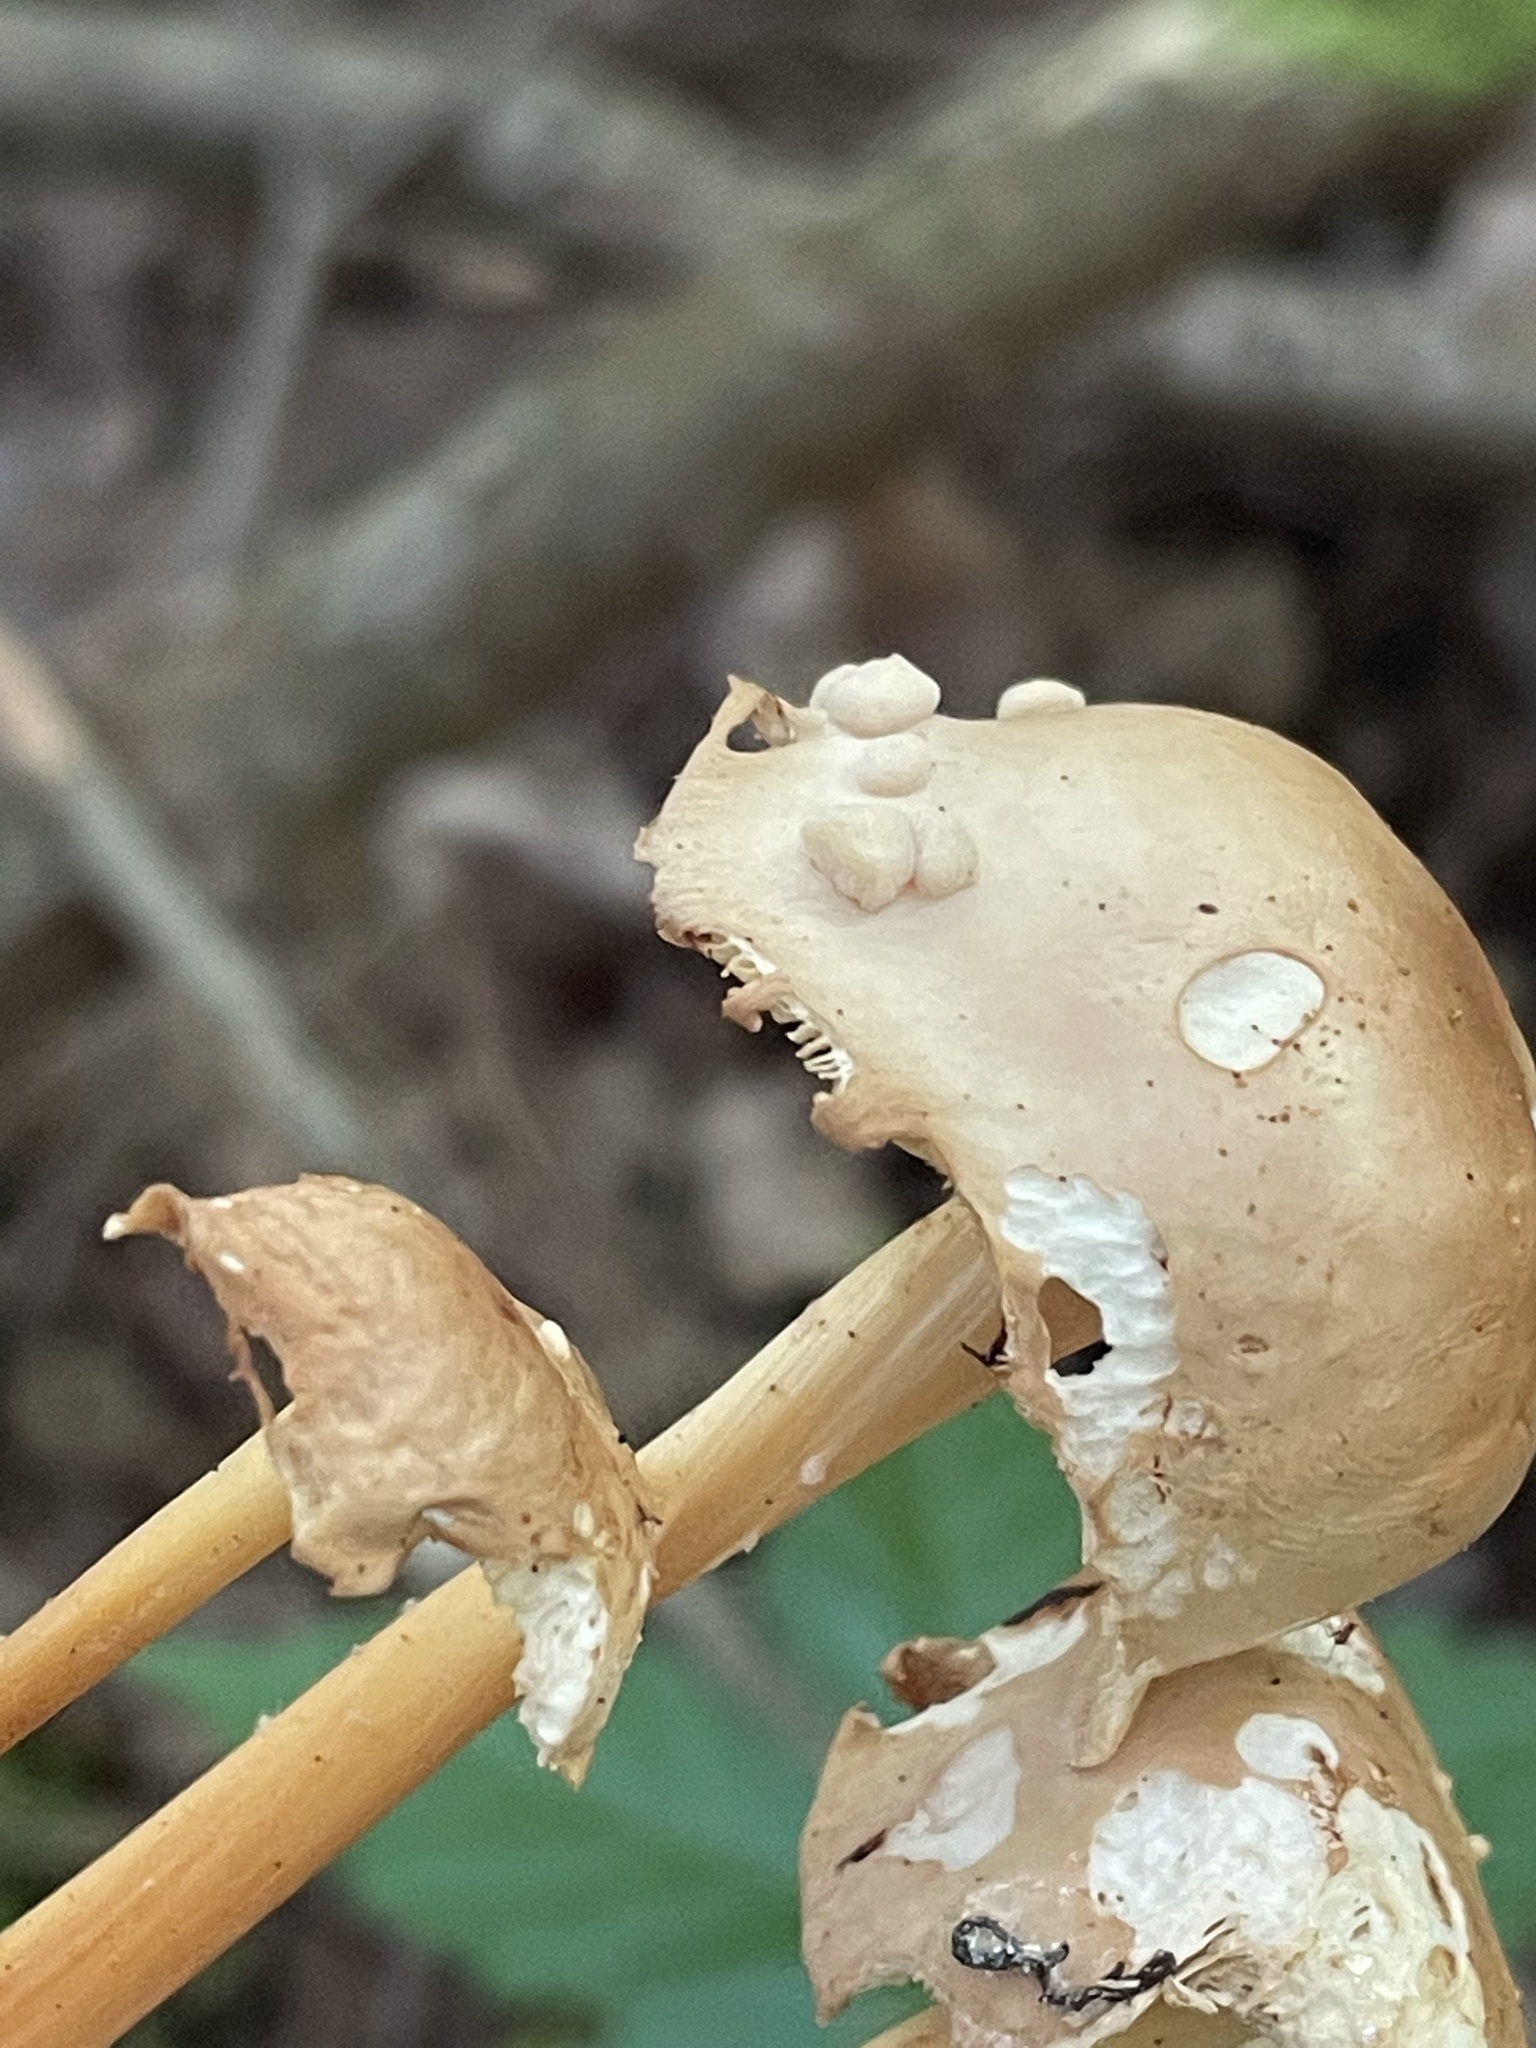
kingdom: Fungi
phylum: Basidiomycota
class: Tremellomycetes
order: Filobasidiales
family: Filobasidiaceae
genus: Syzygospora
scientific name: Syzygospora mycetophila
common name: Collybia clouds
